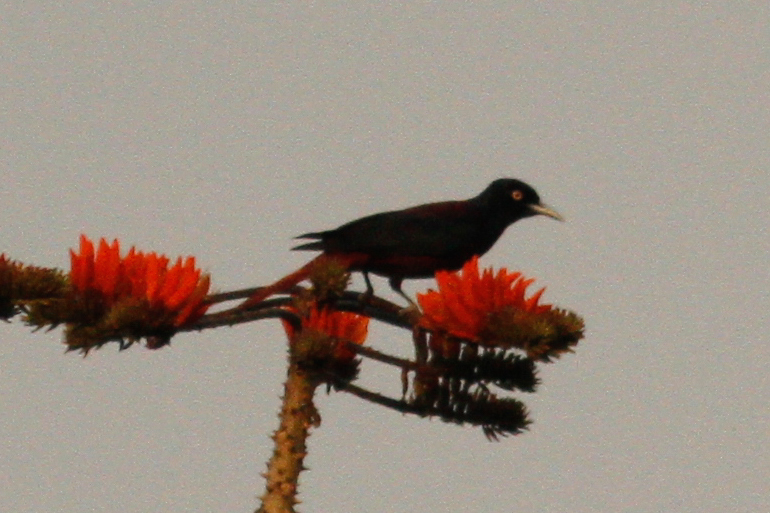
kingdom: Animalia
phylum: Chordata
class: Aves
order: Passeriformes
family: Oriolidae
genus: Oriolus
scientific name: Oriolus traillii
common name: Maroon oriole
